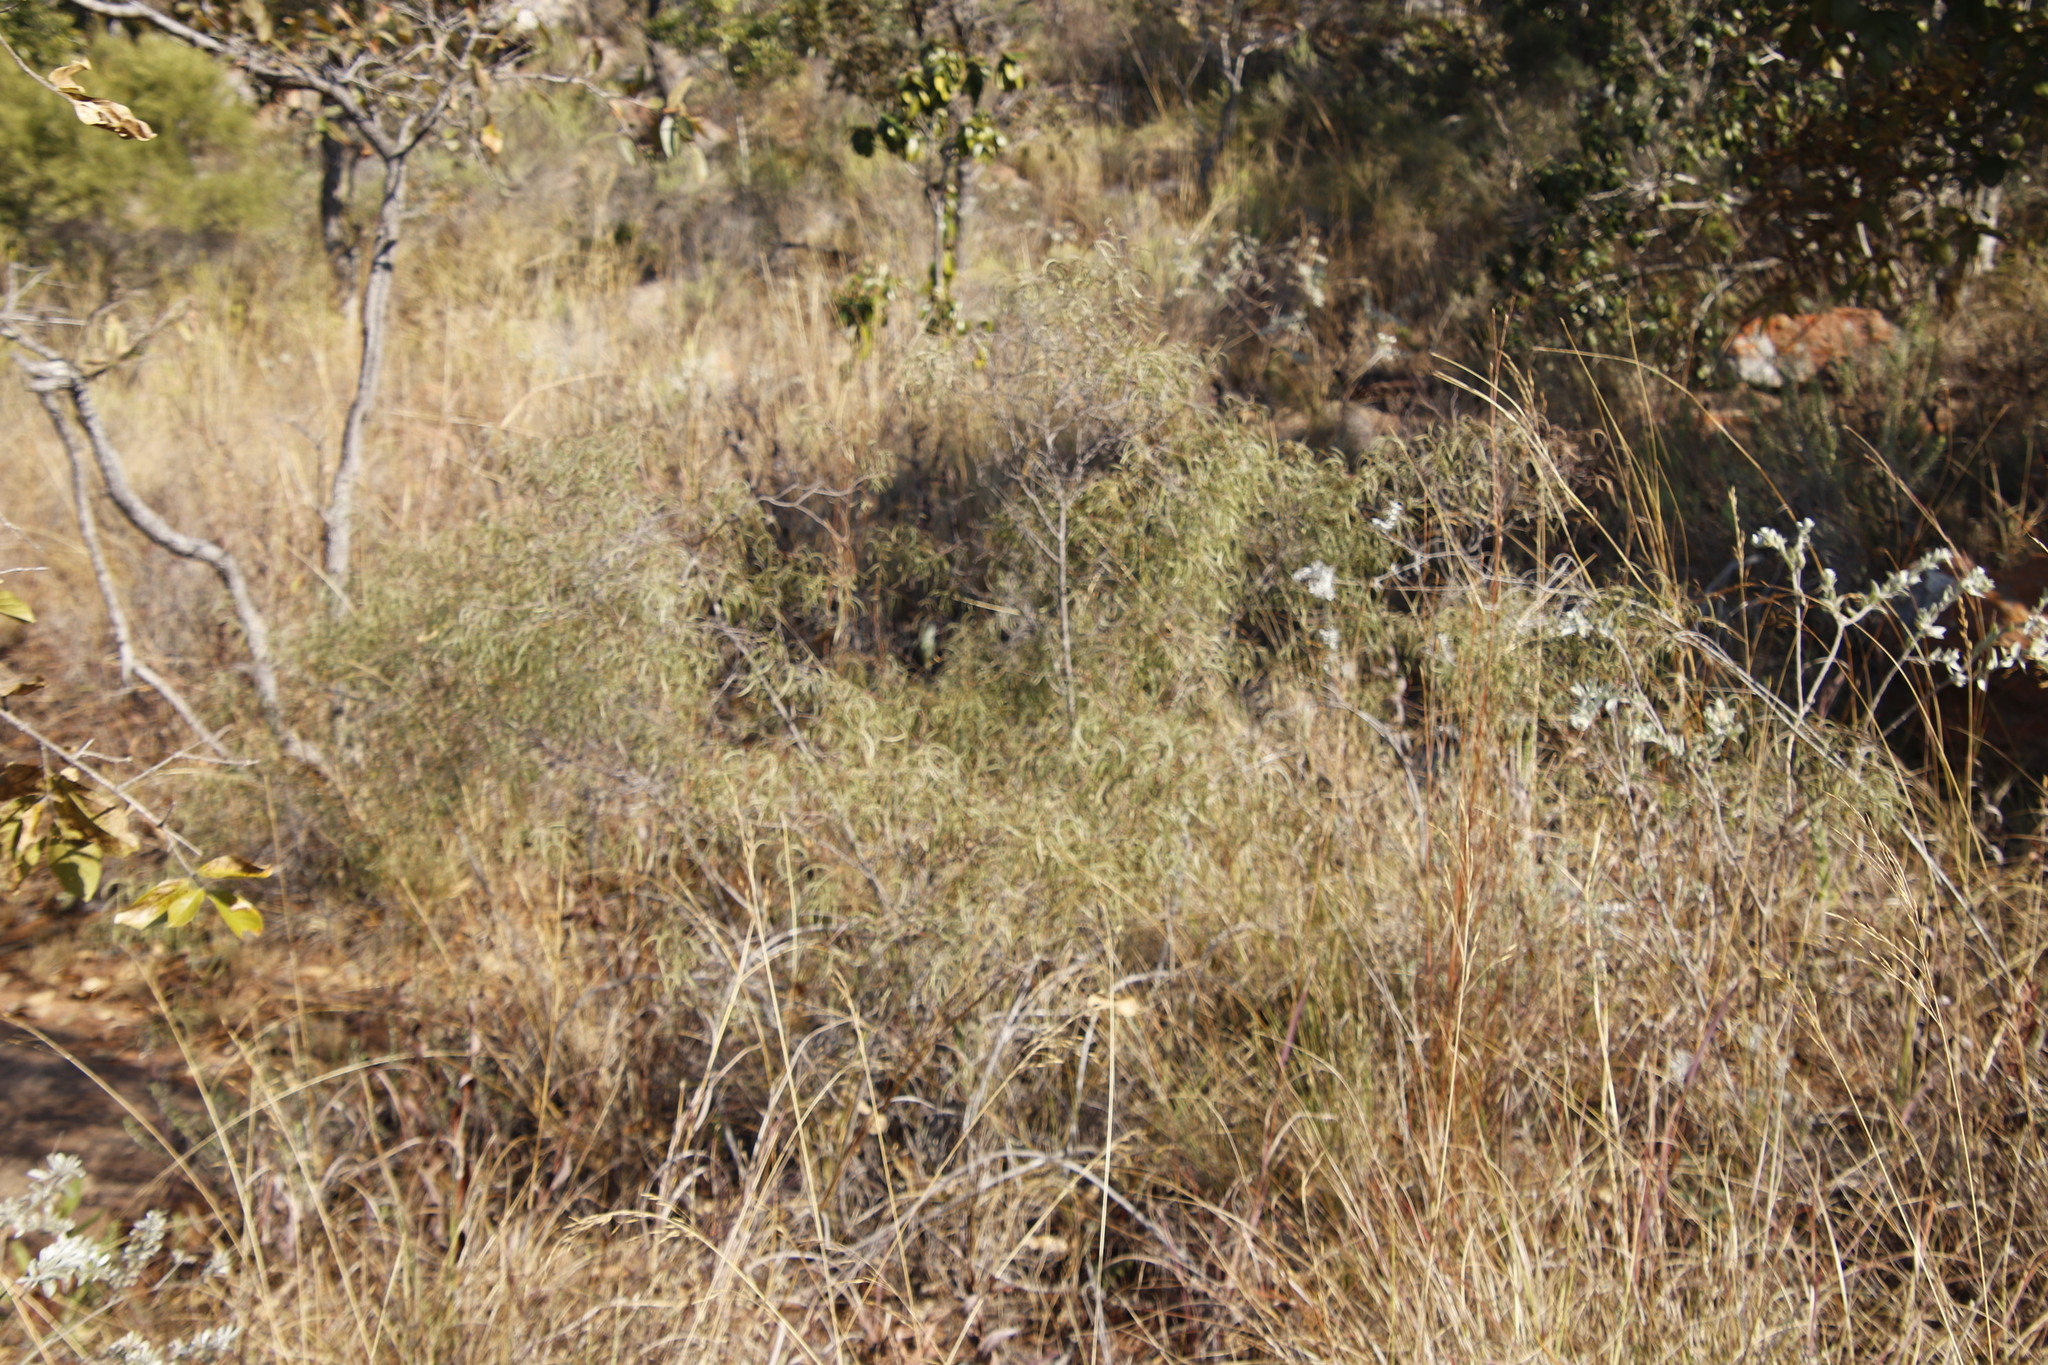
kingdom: Plantae
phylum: Tracheophyta
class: Magnoliopsida
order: Sapindales
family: Anacardiaceae
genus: Searsia
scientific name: Searsia keetii
